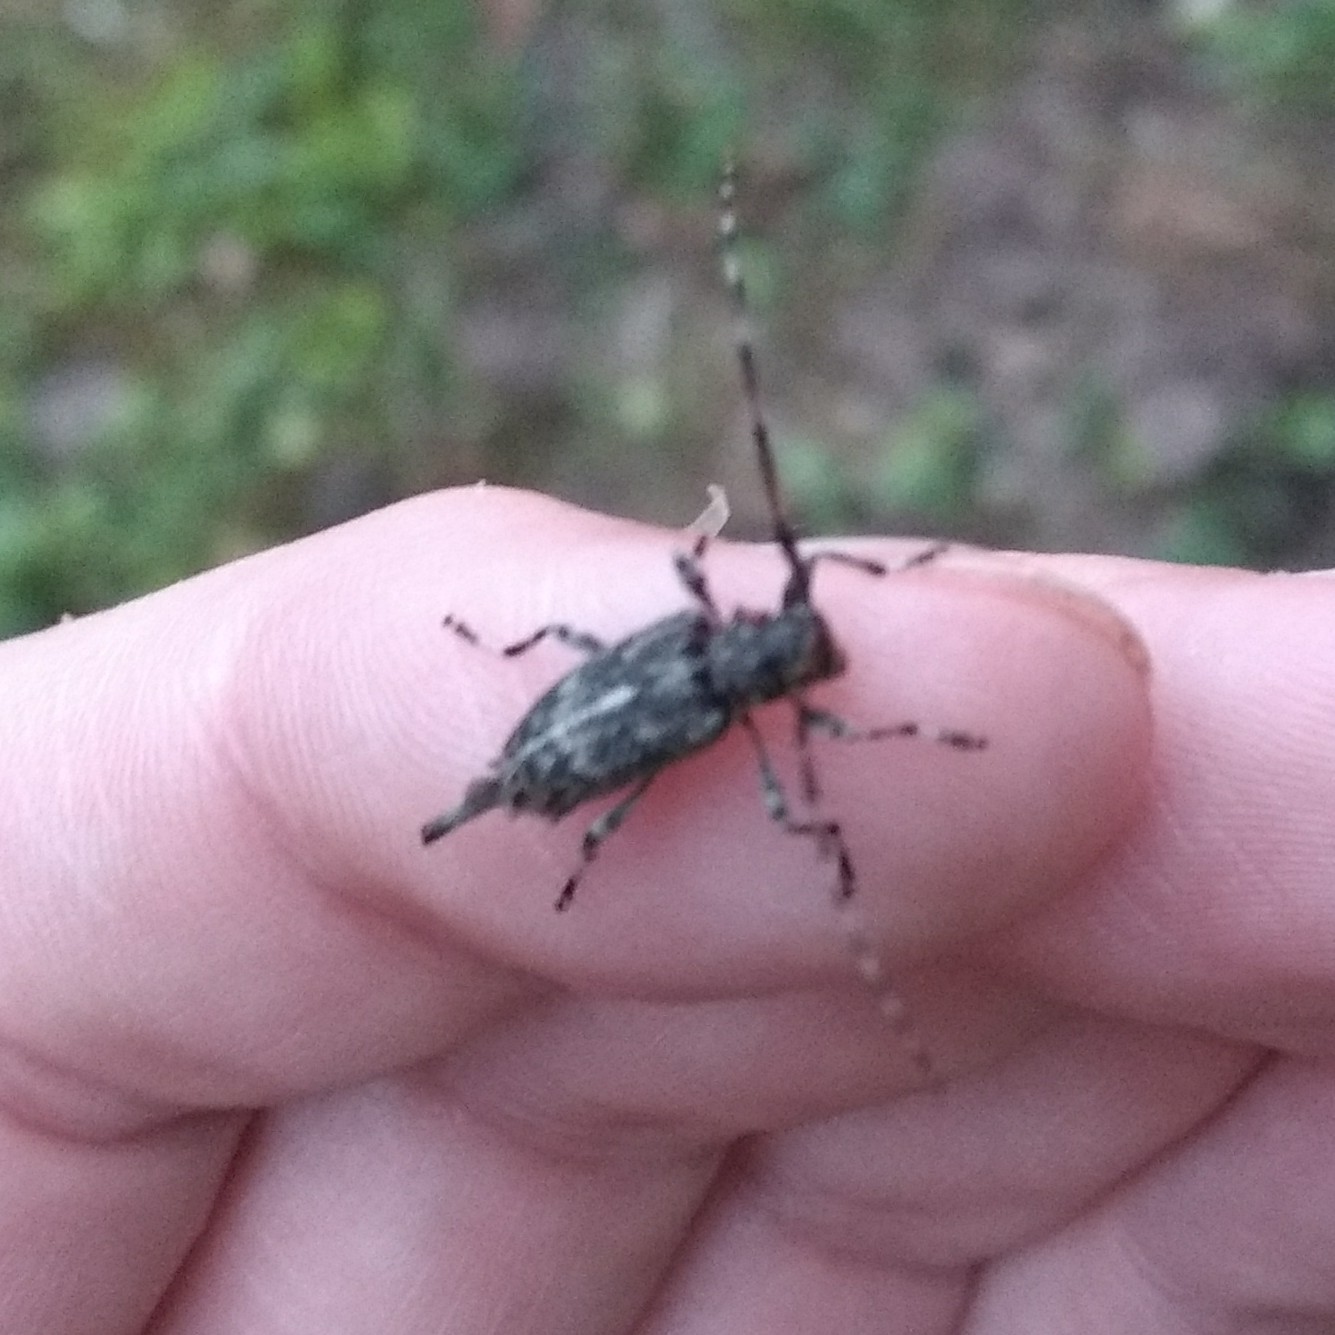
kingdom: Animalia
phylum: Arthropoda
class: Insecta
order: Coleoptera
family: Cerambycidae
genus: Graphisurus
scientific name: Graphisurus fasciatus
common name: Banded graphisurus
